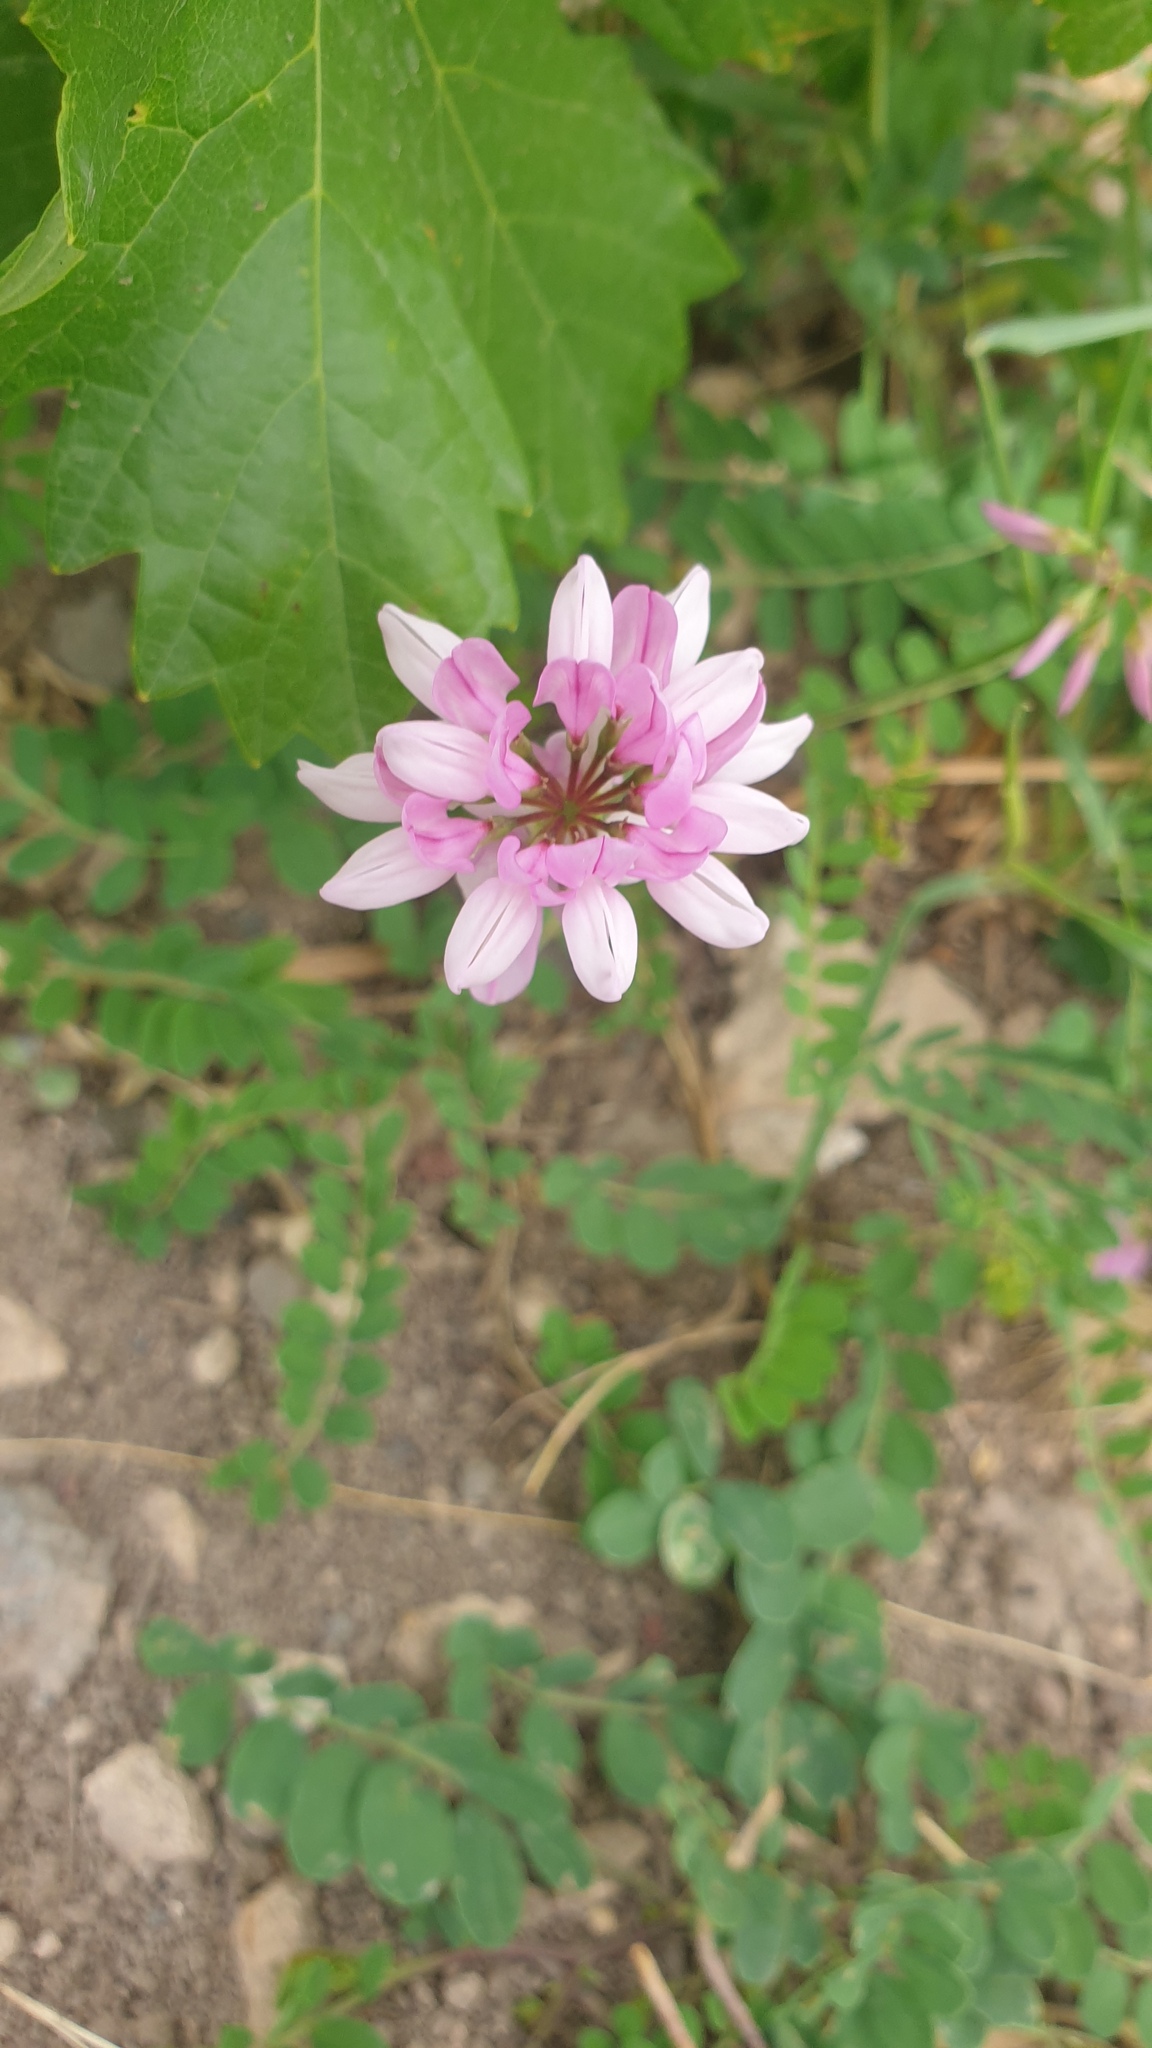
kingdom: Plantae
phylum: Tracheophyta
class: Magnoliopsida
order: Fabales
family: Fabaceae
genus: Coronilla
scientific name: Coronilla varia
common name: Crownvetch
